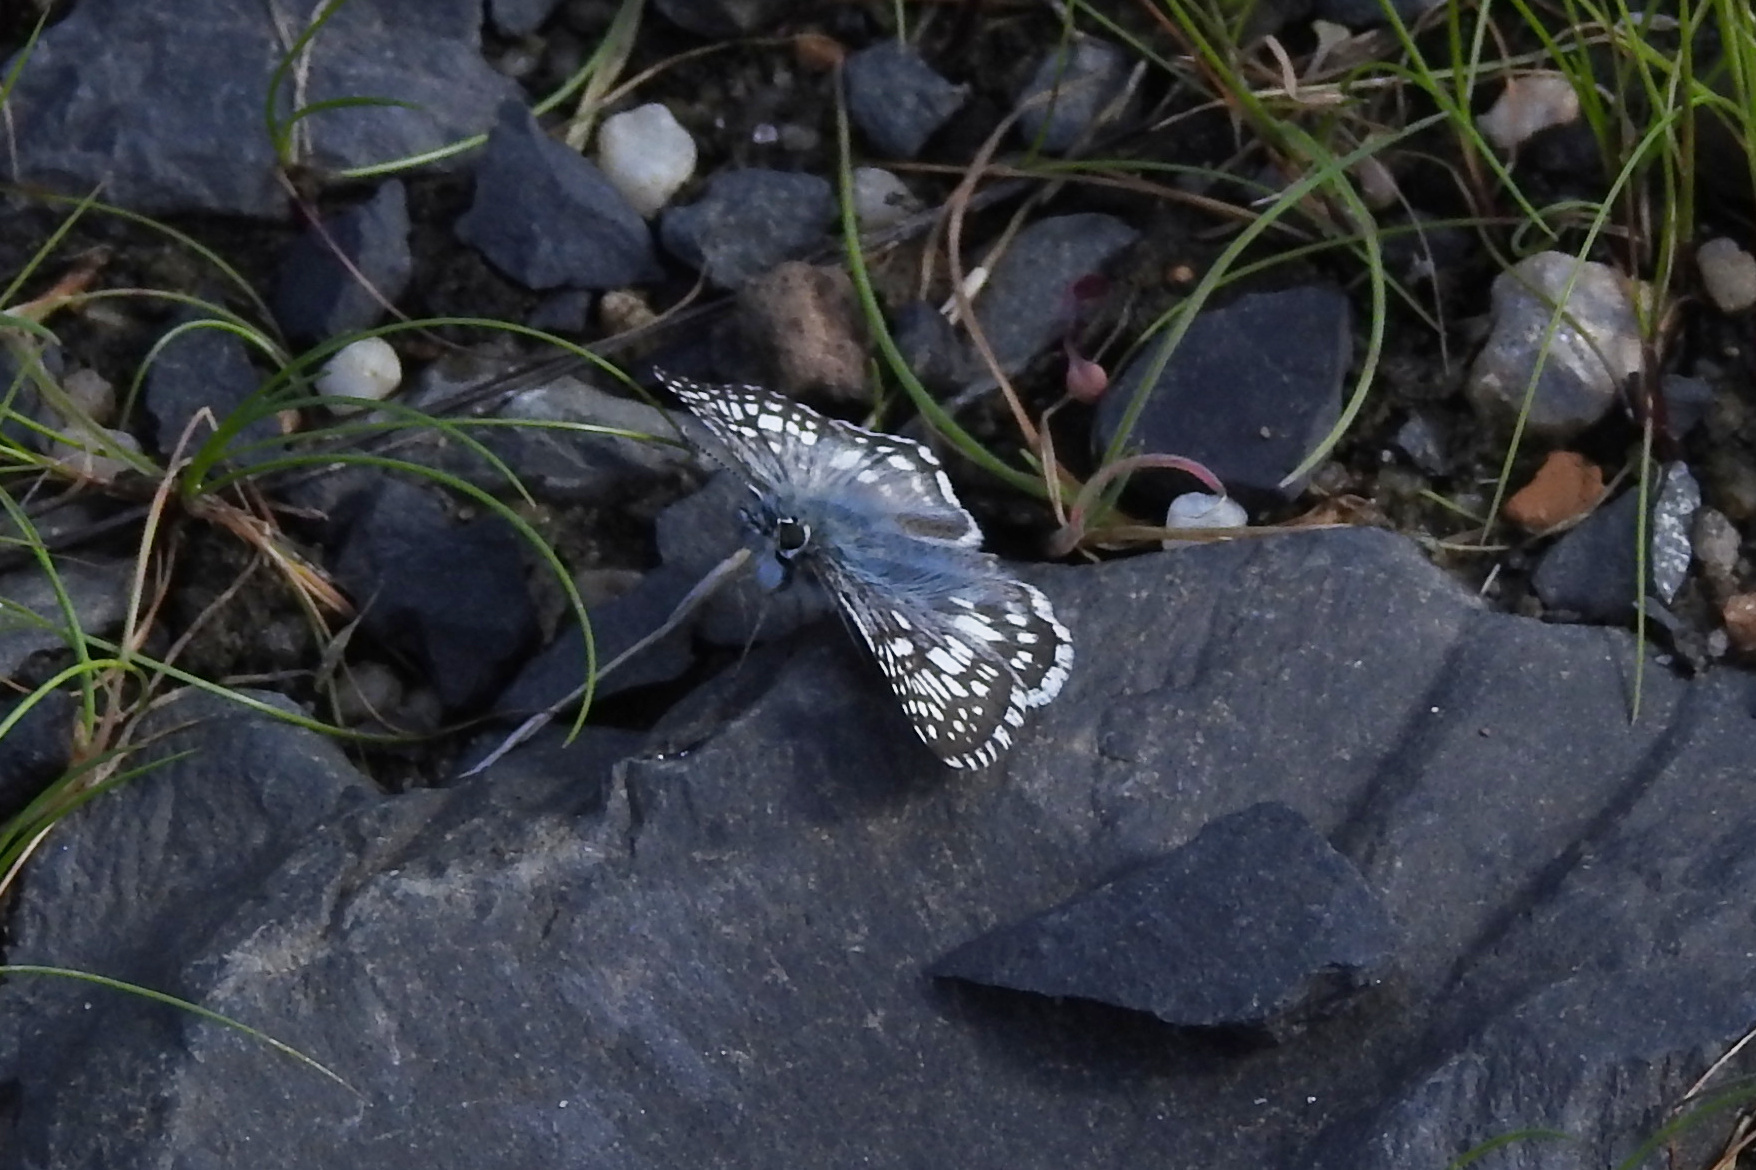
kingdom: Animalia
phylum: Arthropoda
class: Insecta
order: Lepidoptera
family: Hesperiidae
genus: Burnsius
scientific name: Burnsius communis
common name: Common checkered-skipper
